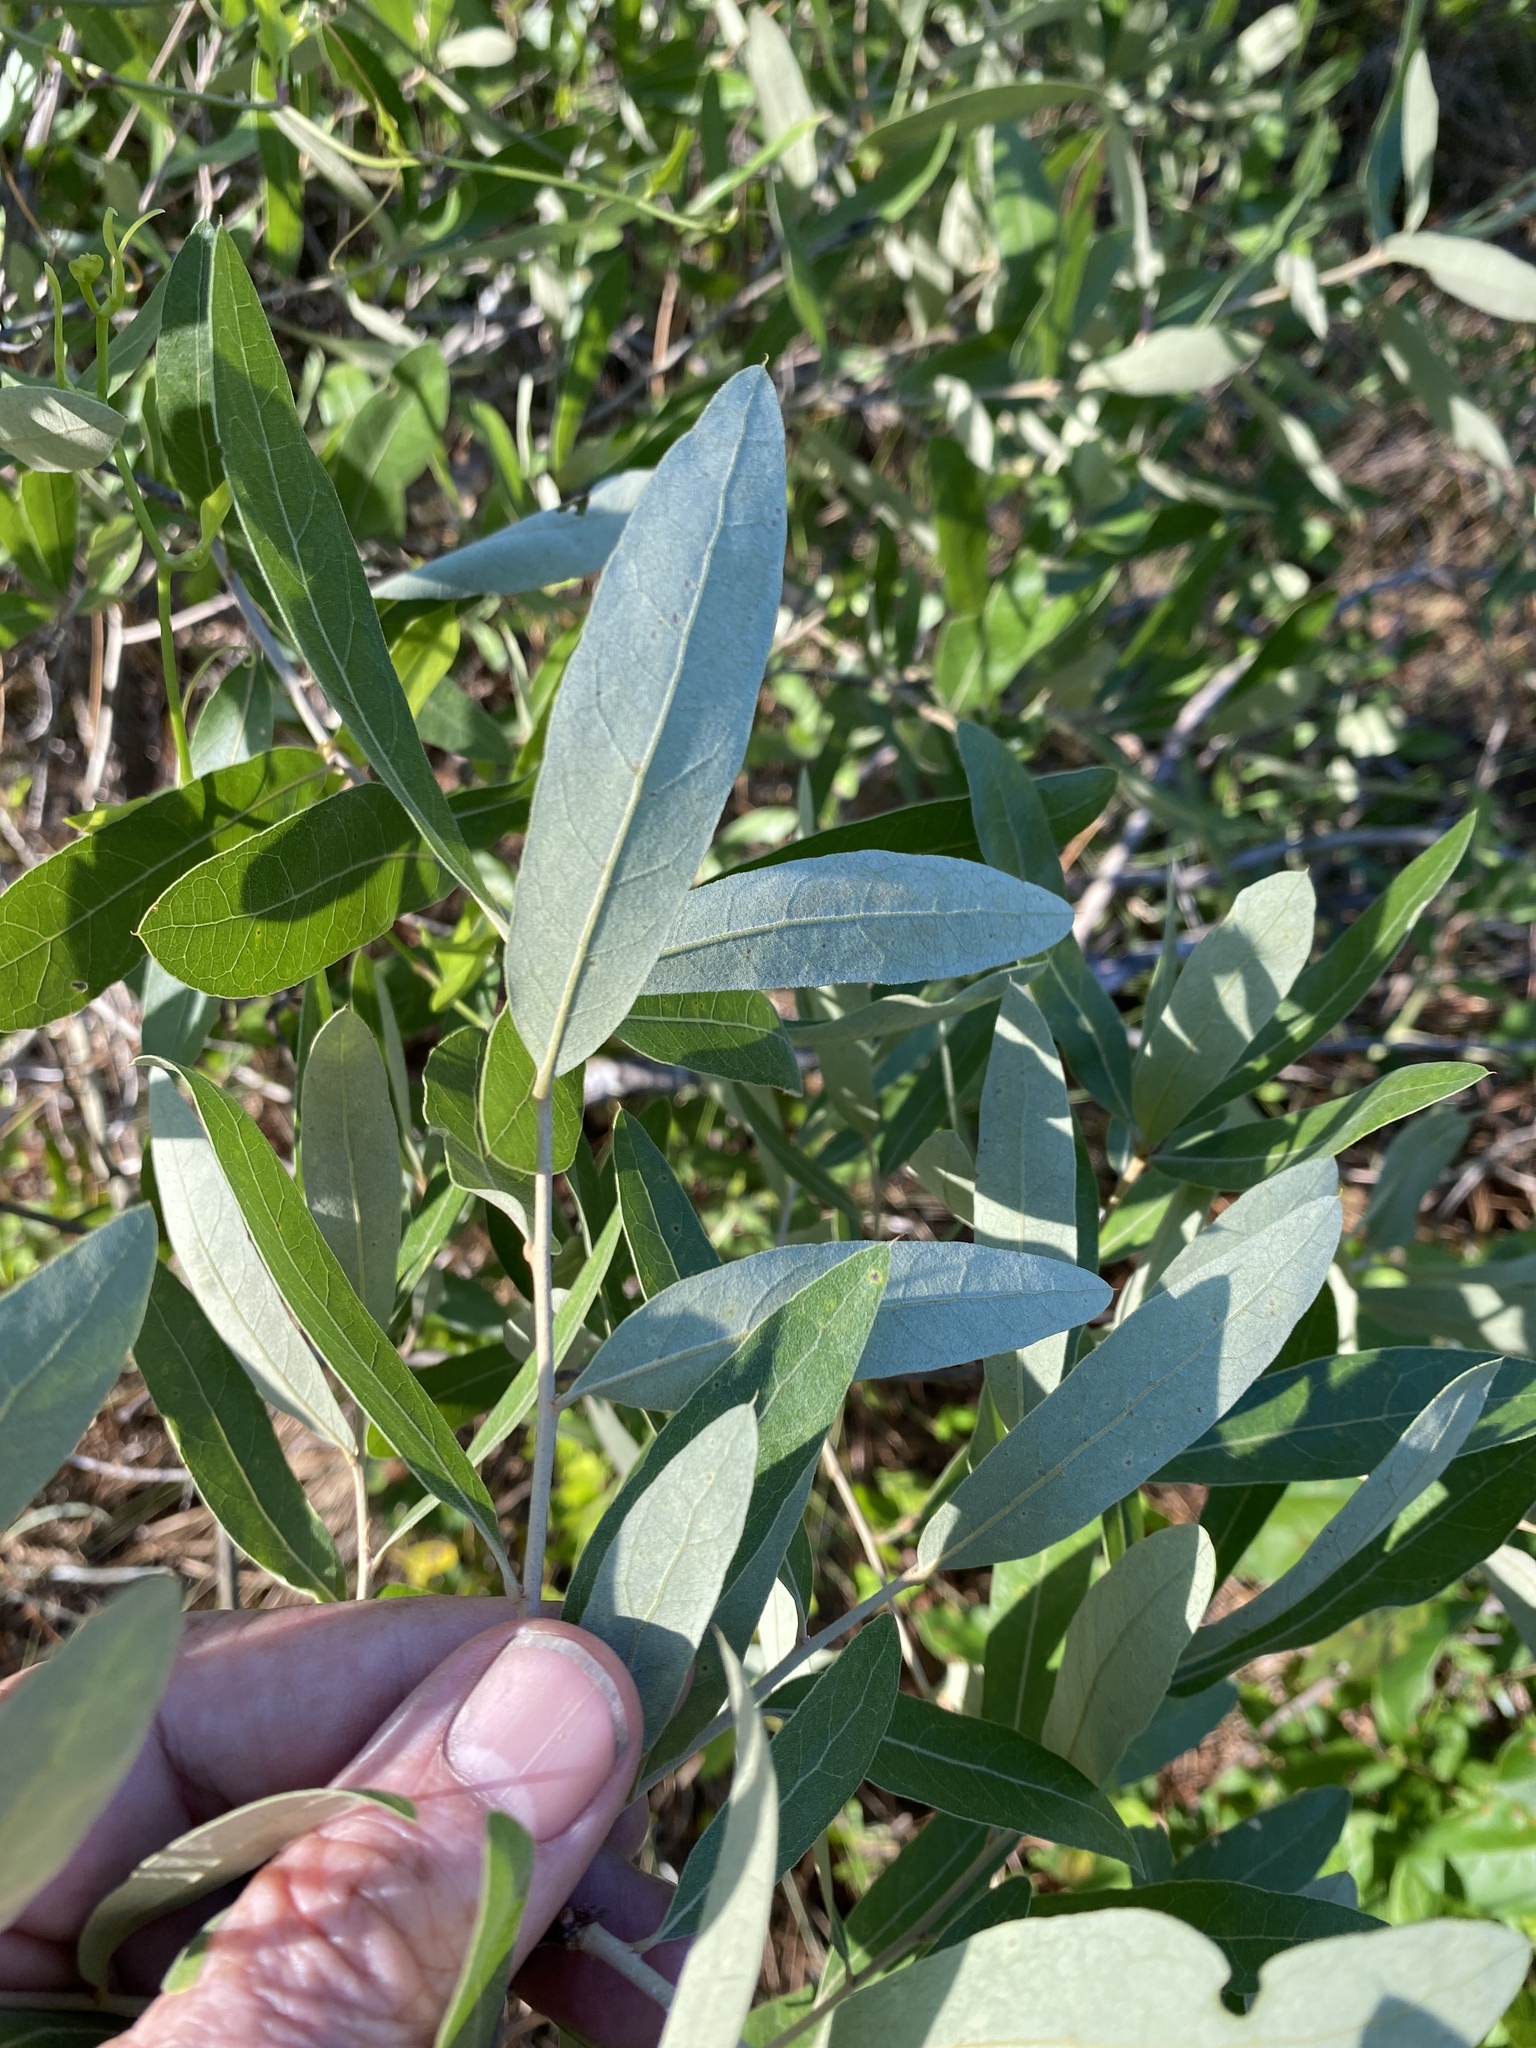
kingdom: Plantae
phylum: Tracheophyta
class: Magnoliopsida
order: Fagales
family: Fagaceae
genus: Quercus
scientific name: Quercus pumila
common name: Runner oak
